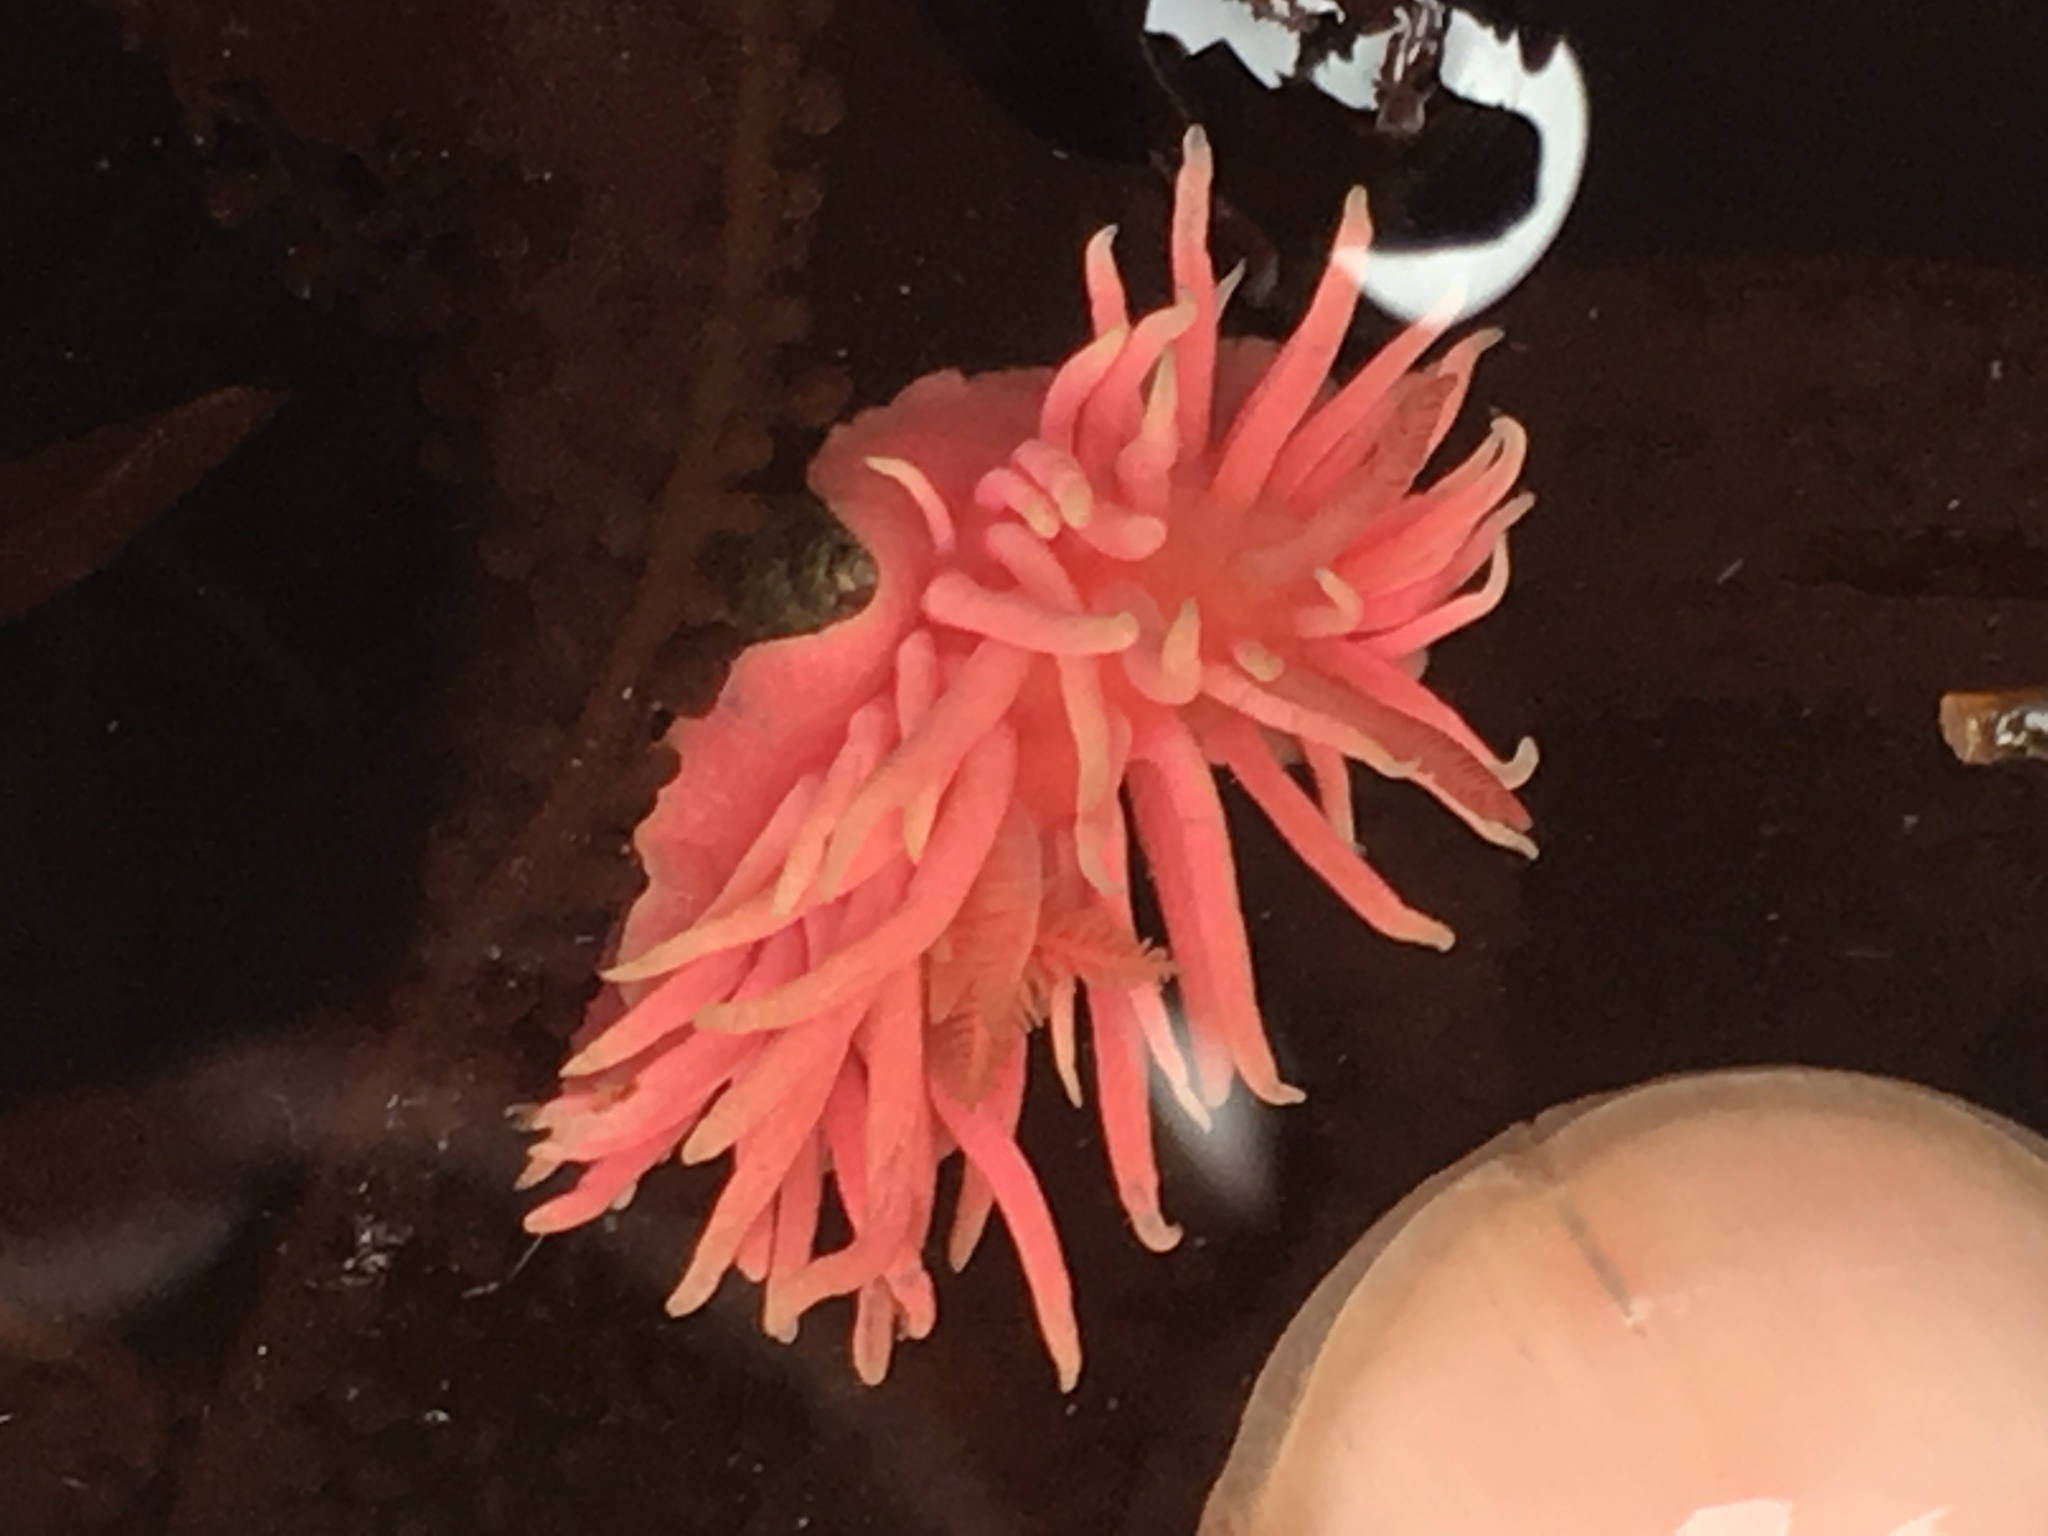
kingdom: Animalia
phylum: Mollusca
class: Gastropoda
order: Nudibranchia
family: Goniodorididae
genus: Okenia
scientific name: Okenia
